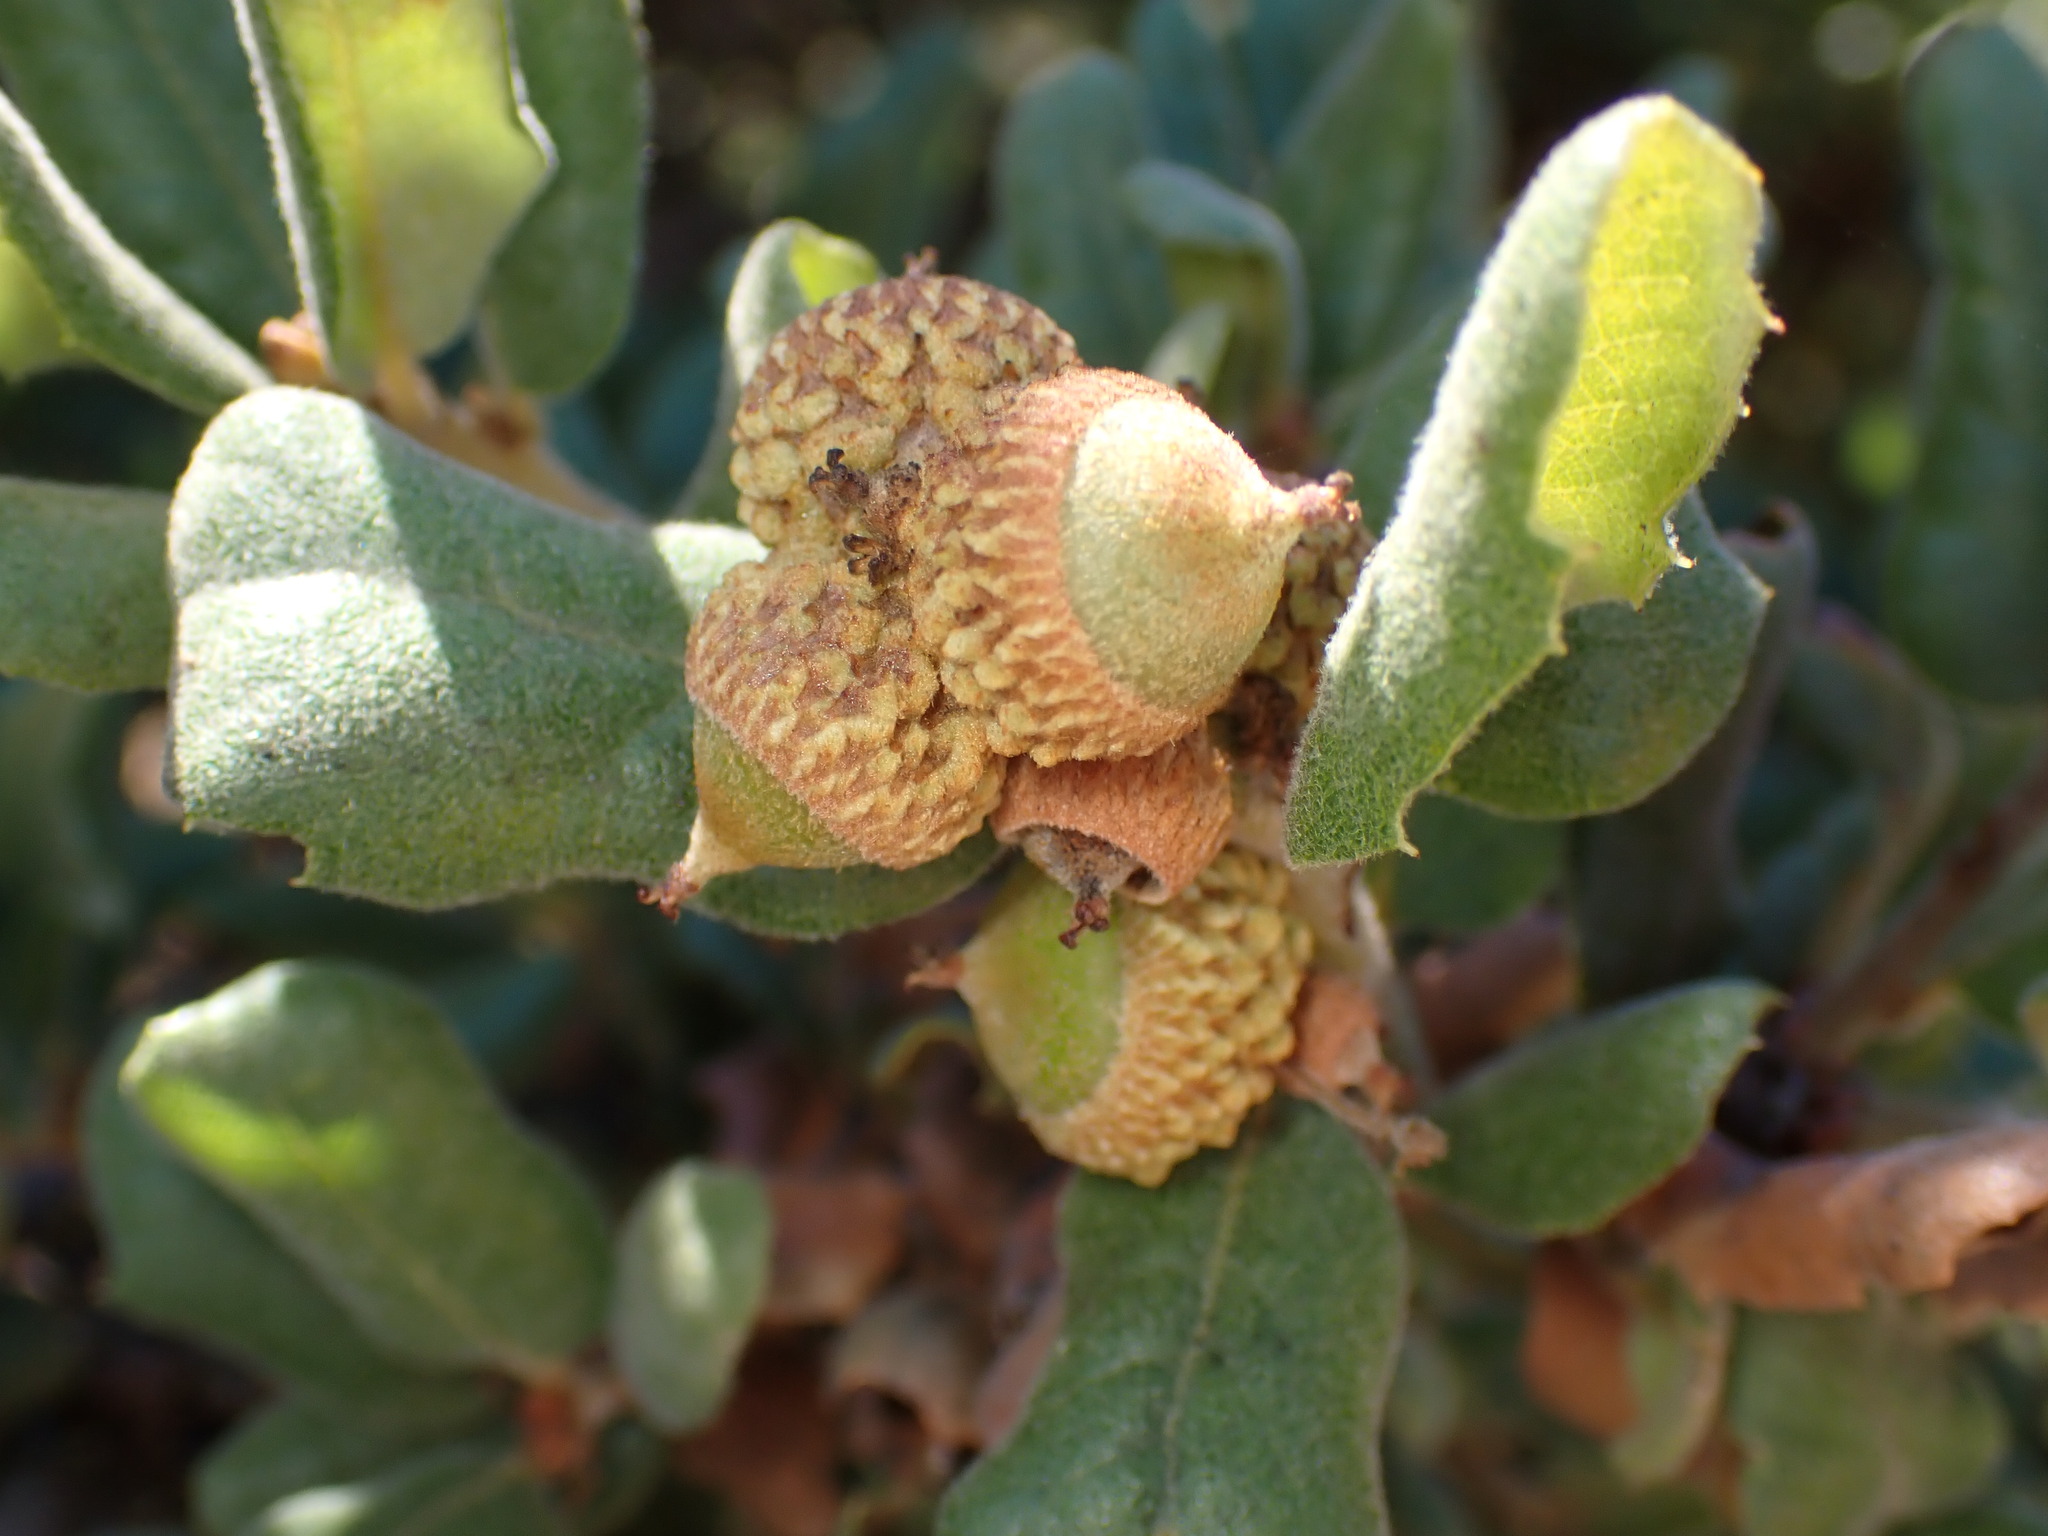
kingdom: Plantae
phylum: Tracheophyta
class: Magnoliopsida
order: Fagales
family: Fagaceae
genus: Quercus
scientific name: Quercus durata
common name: Leather oak
